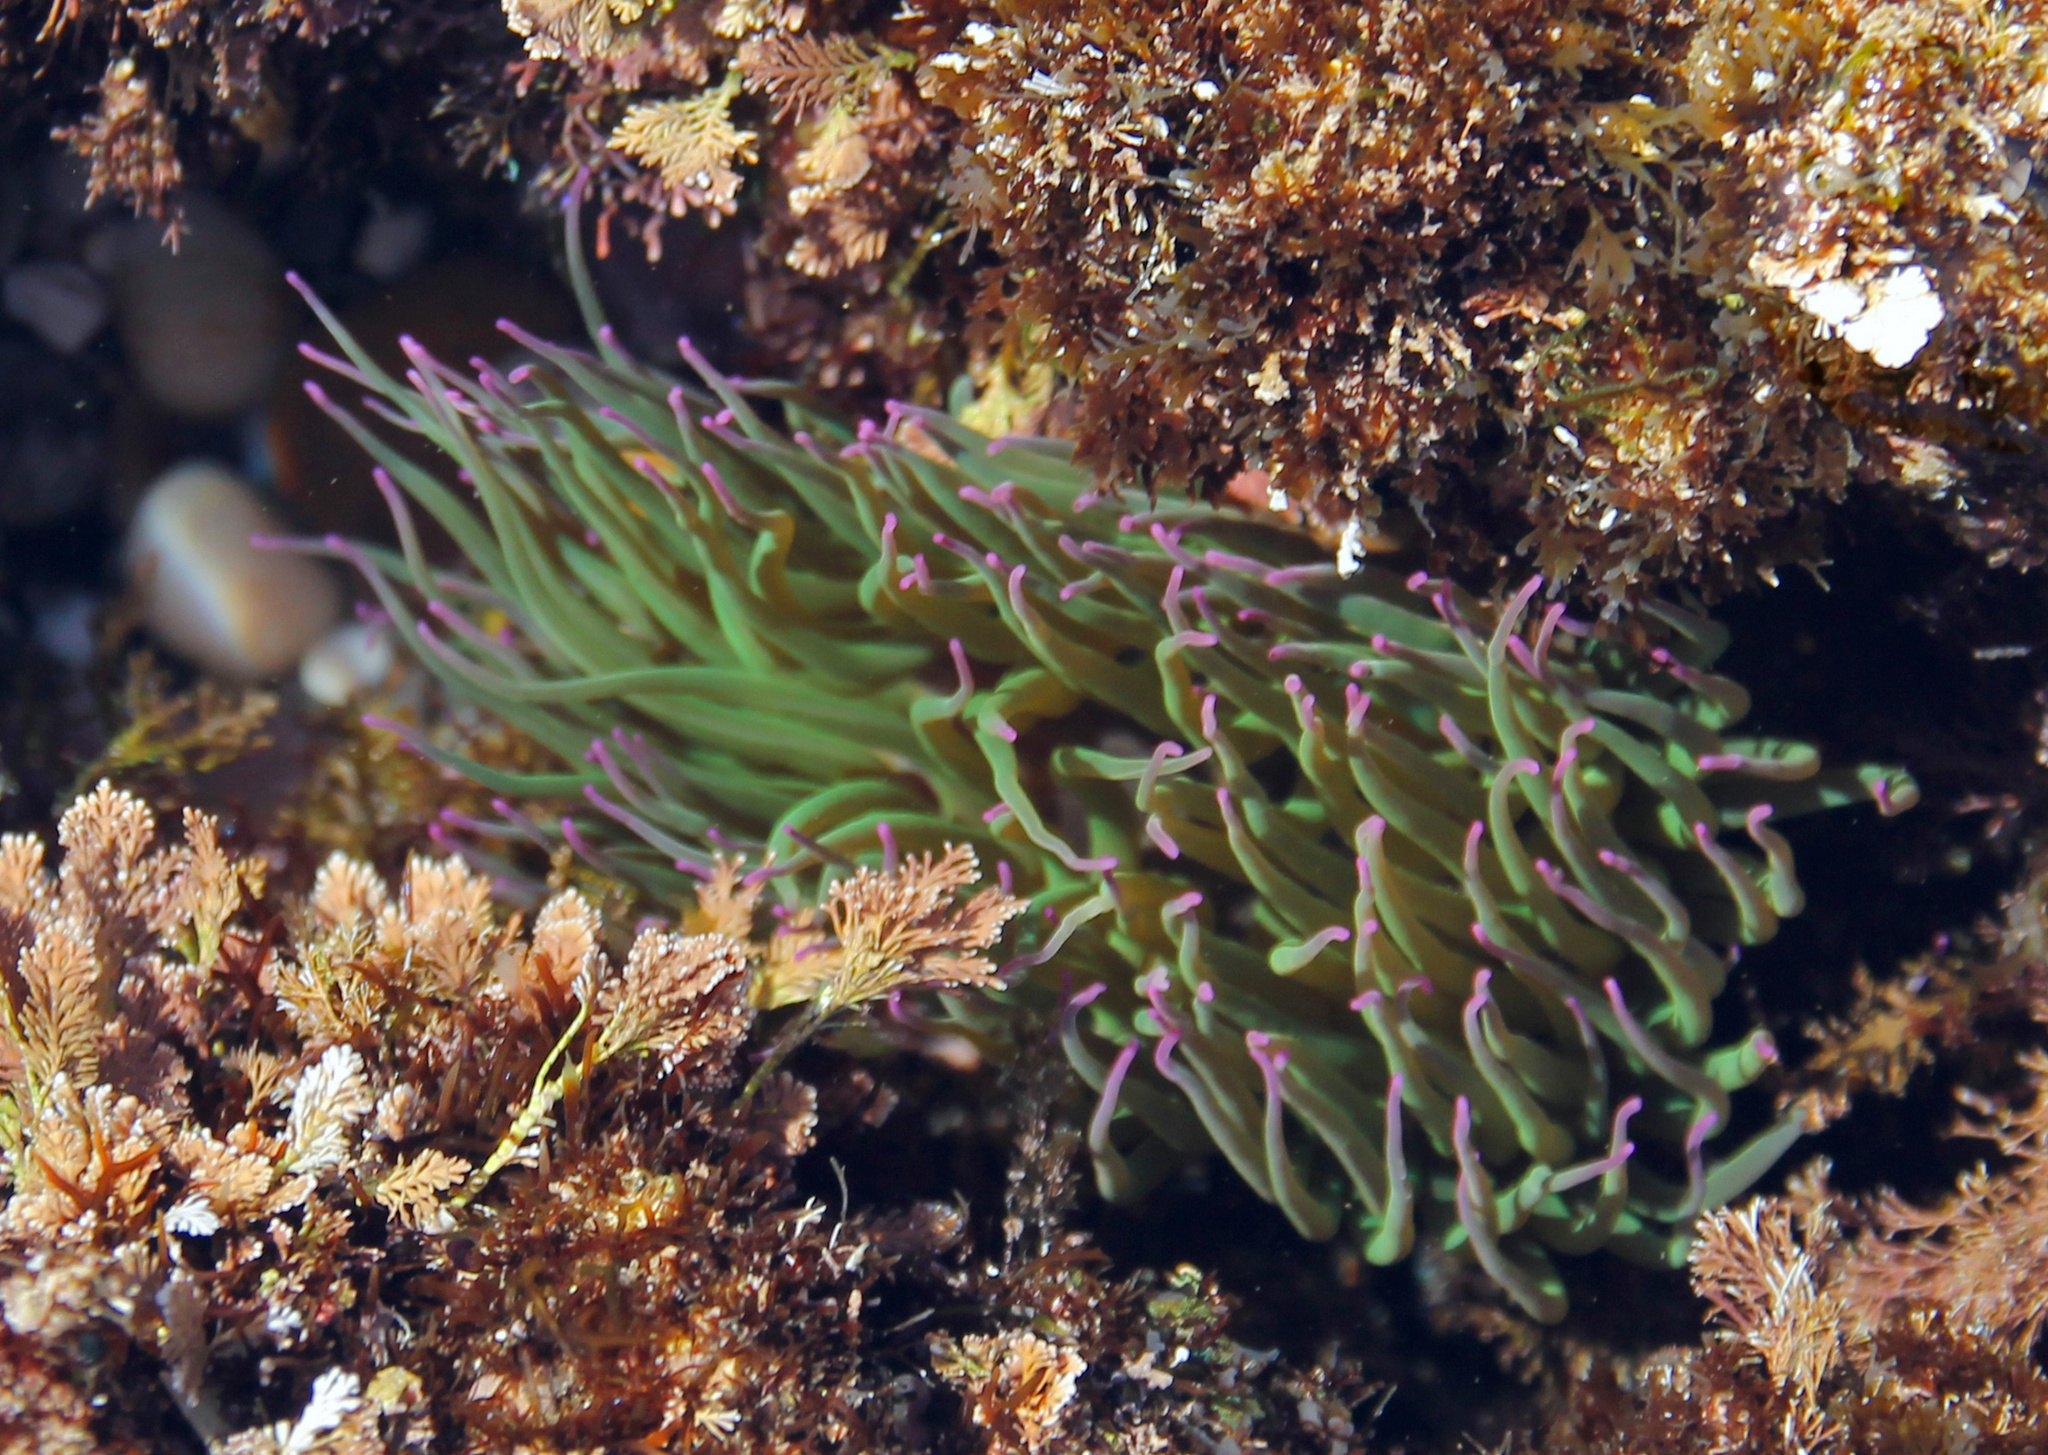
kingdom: Animalia
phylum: Cnidaria
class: Anthozoa
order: Actiniaria
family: Actiniidae
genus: Anemonia
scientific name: Anemonia viridis
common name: Snakelocks anemone
